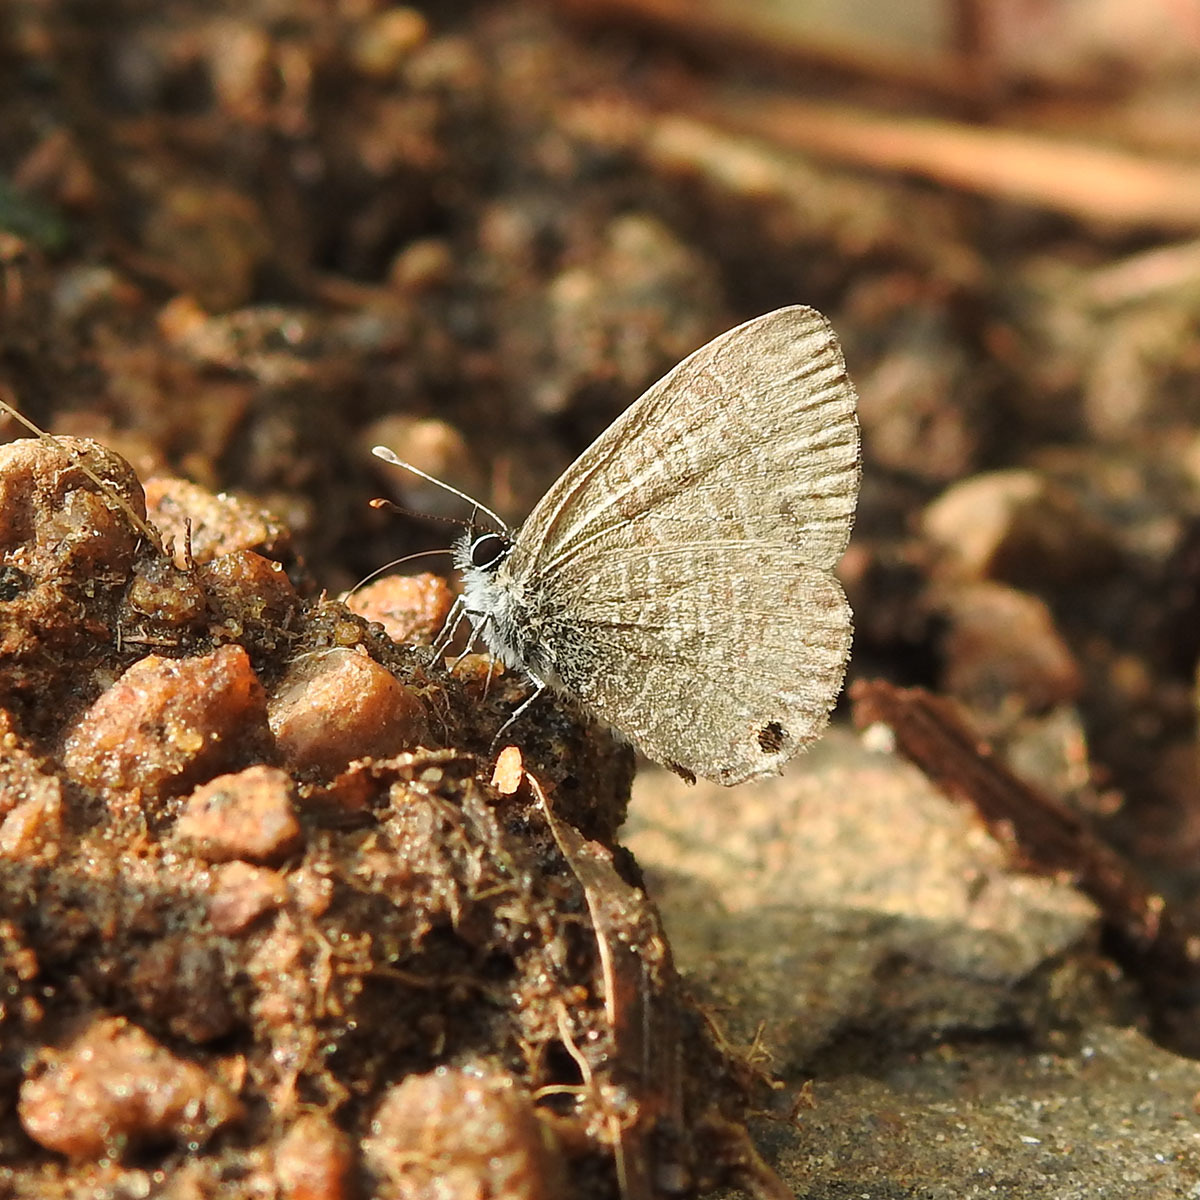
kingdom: Animalia
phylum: Arthropoda
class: Insecta
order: Lepidoptera
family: Lycaenidae
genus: Prosotas
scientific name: Prosotas dubiosa
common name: Tailless lineblue
